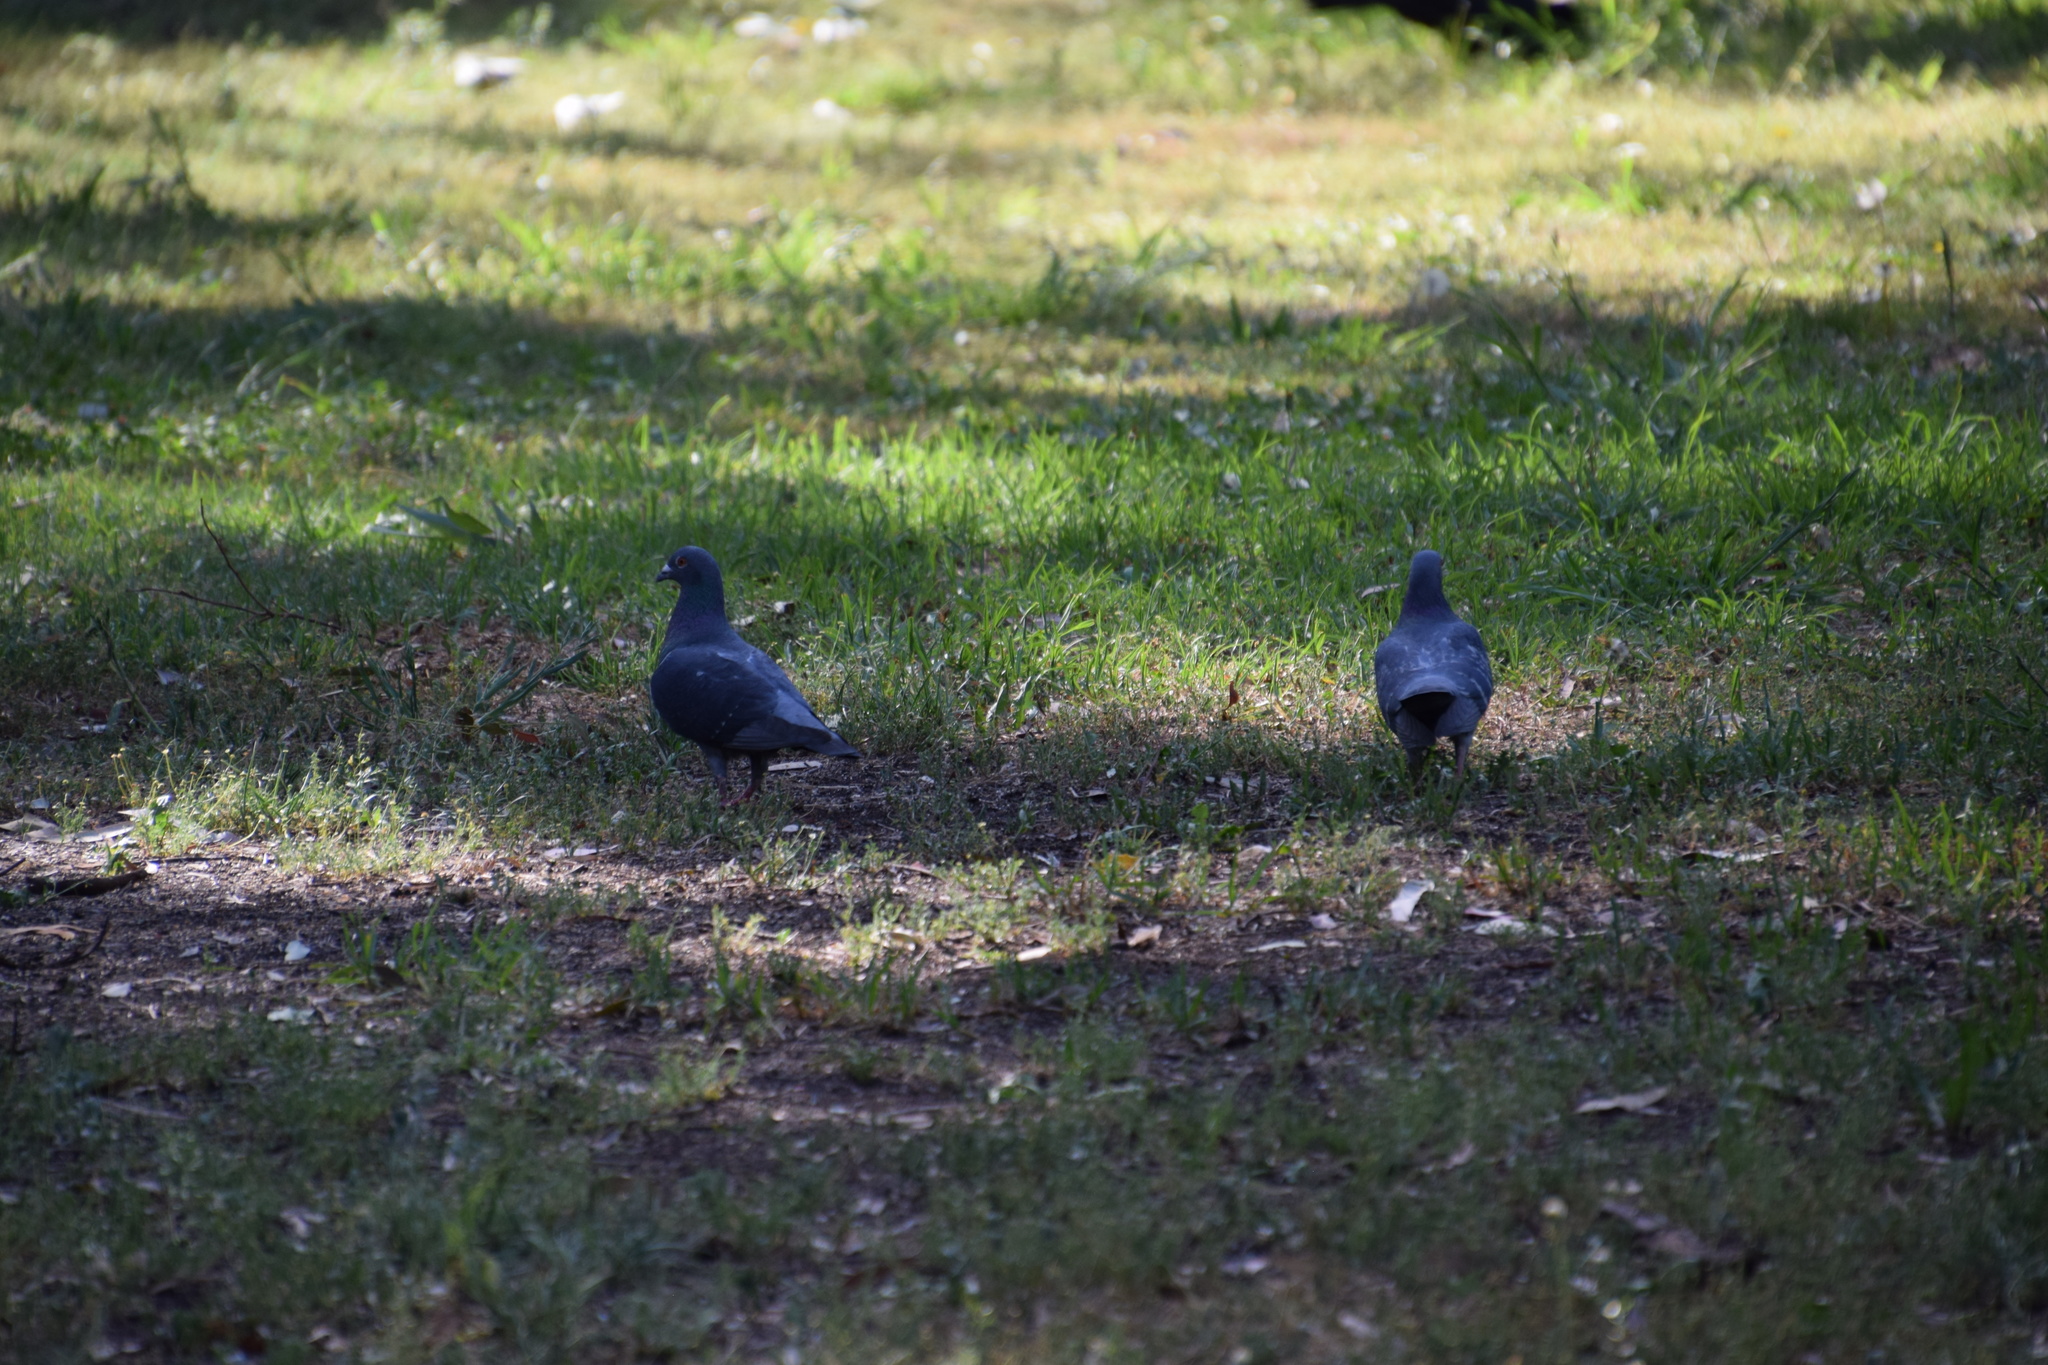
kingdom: Animalia
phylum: Chordata
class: Aves
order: Columbiformes
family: Columbidae
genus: Columba
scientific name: Columba livia
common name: Rock pigeon
